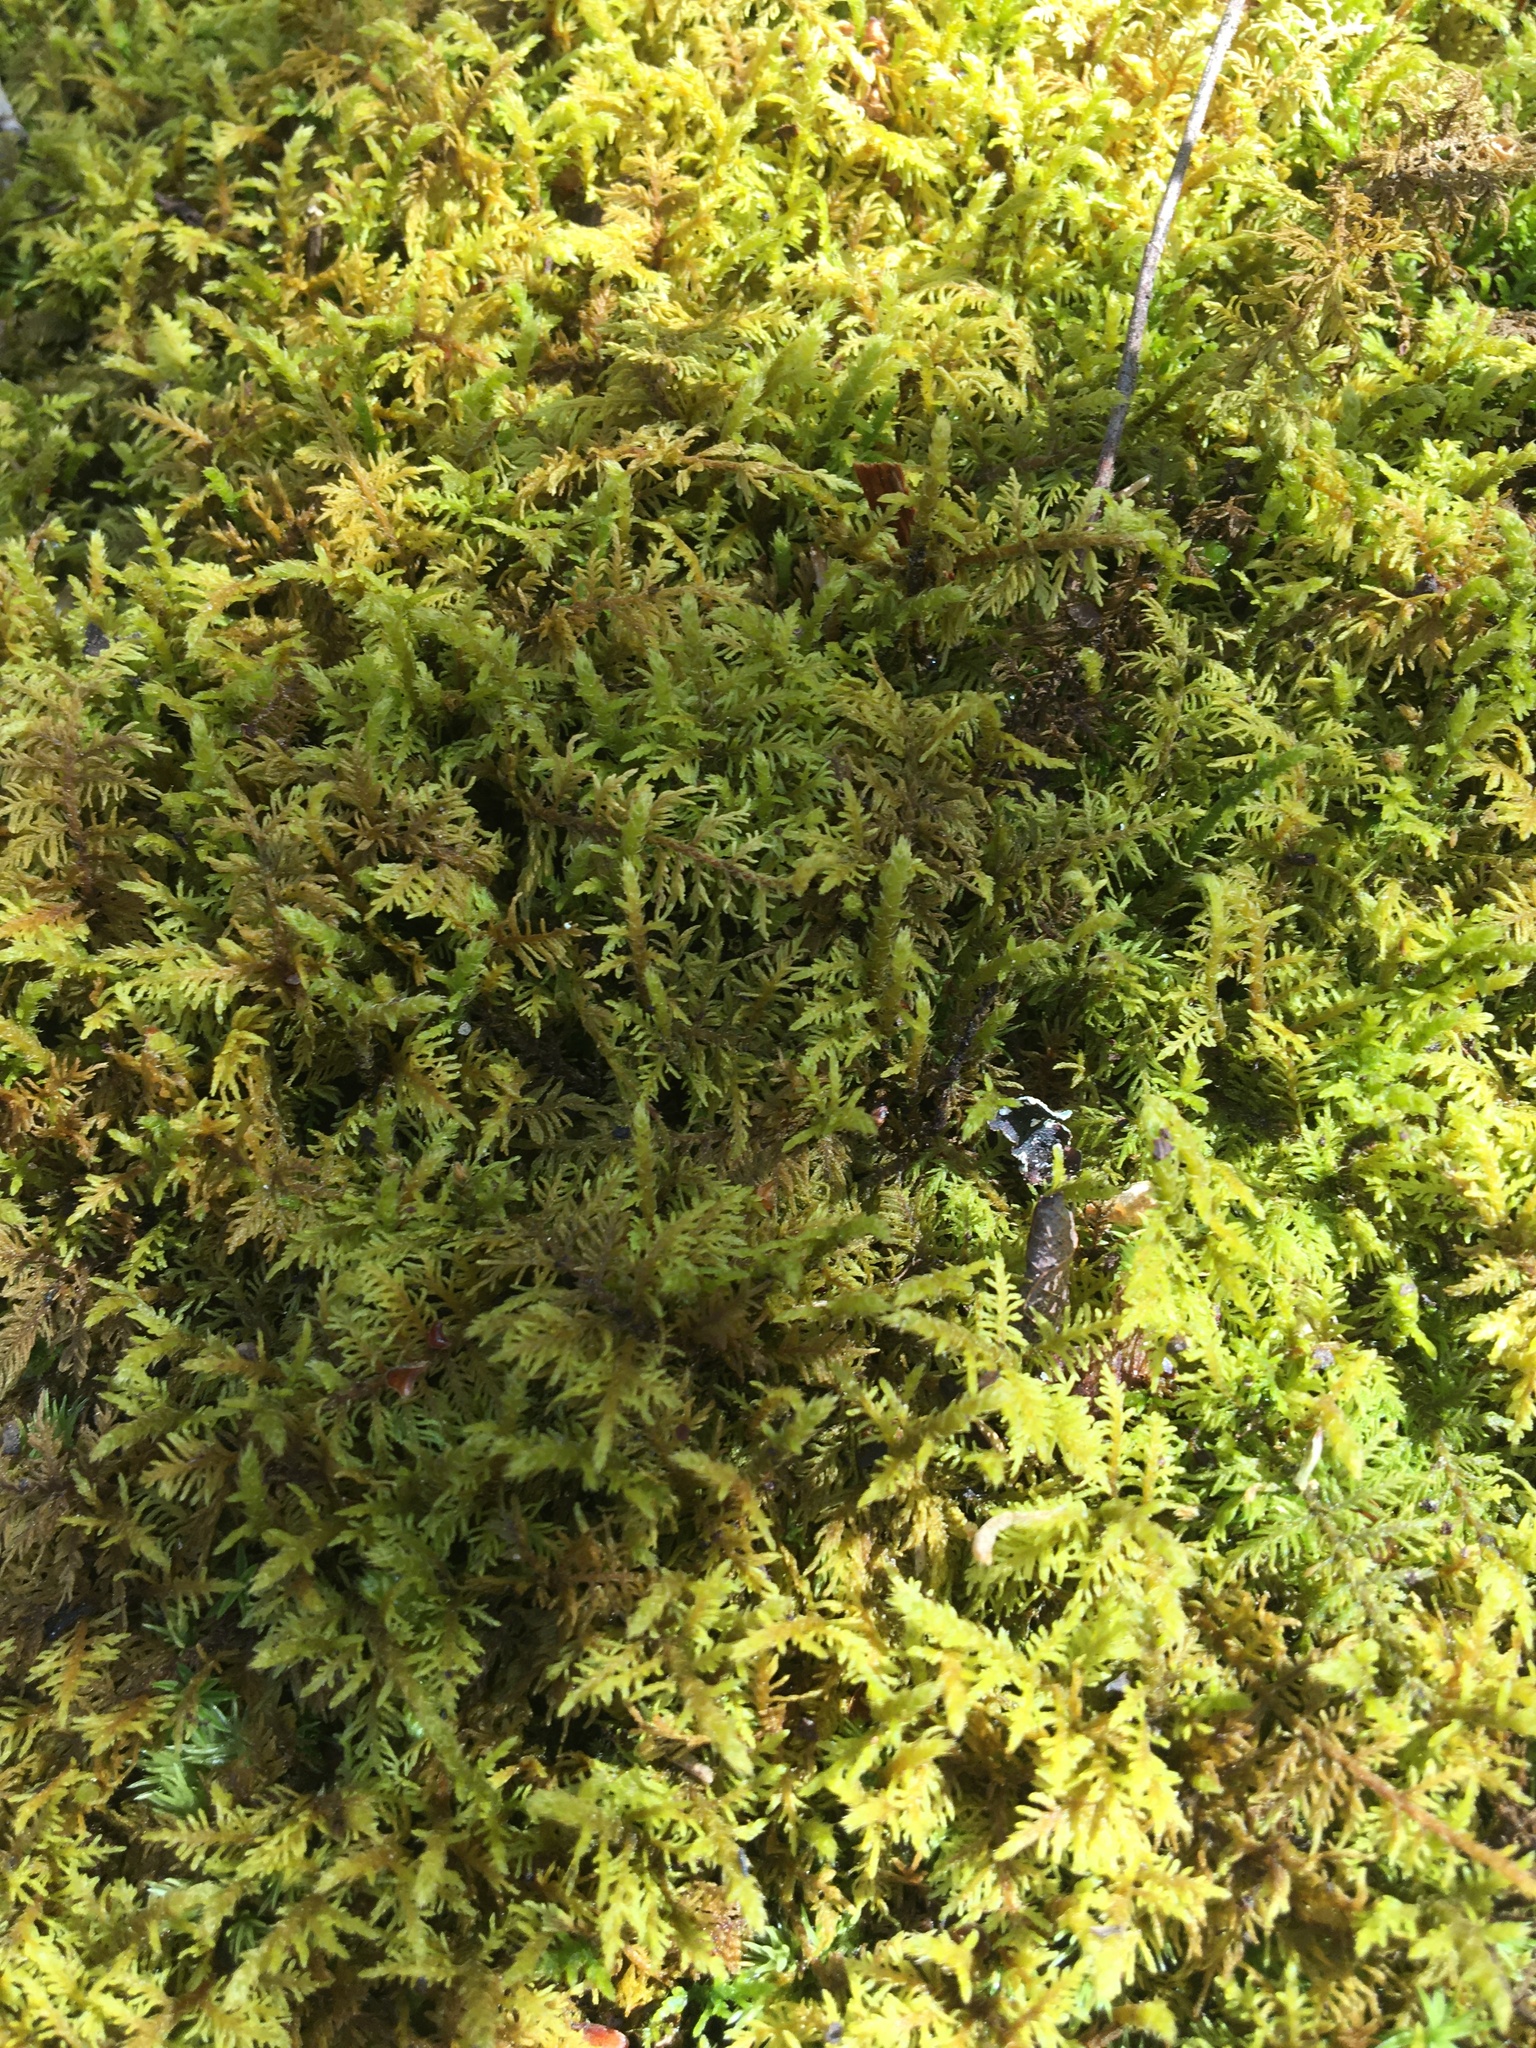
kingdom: Plantae
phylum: Bryophyta
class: Bryopsida
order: Hypnales
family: Thuidiaceae
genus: Thuidium
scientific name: Thuidium delicatulum
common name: Delicate fern moss
